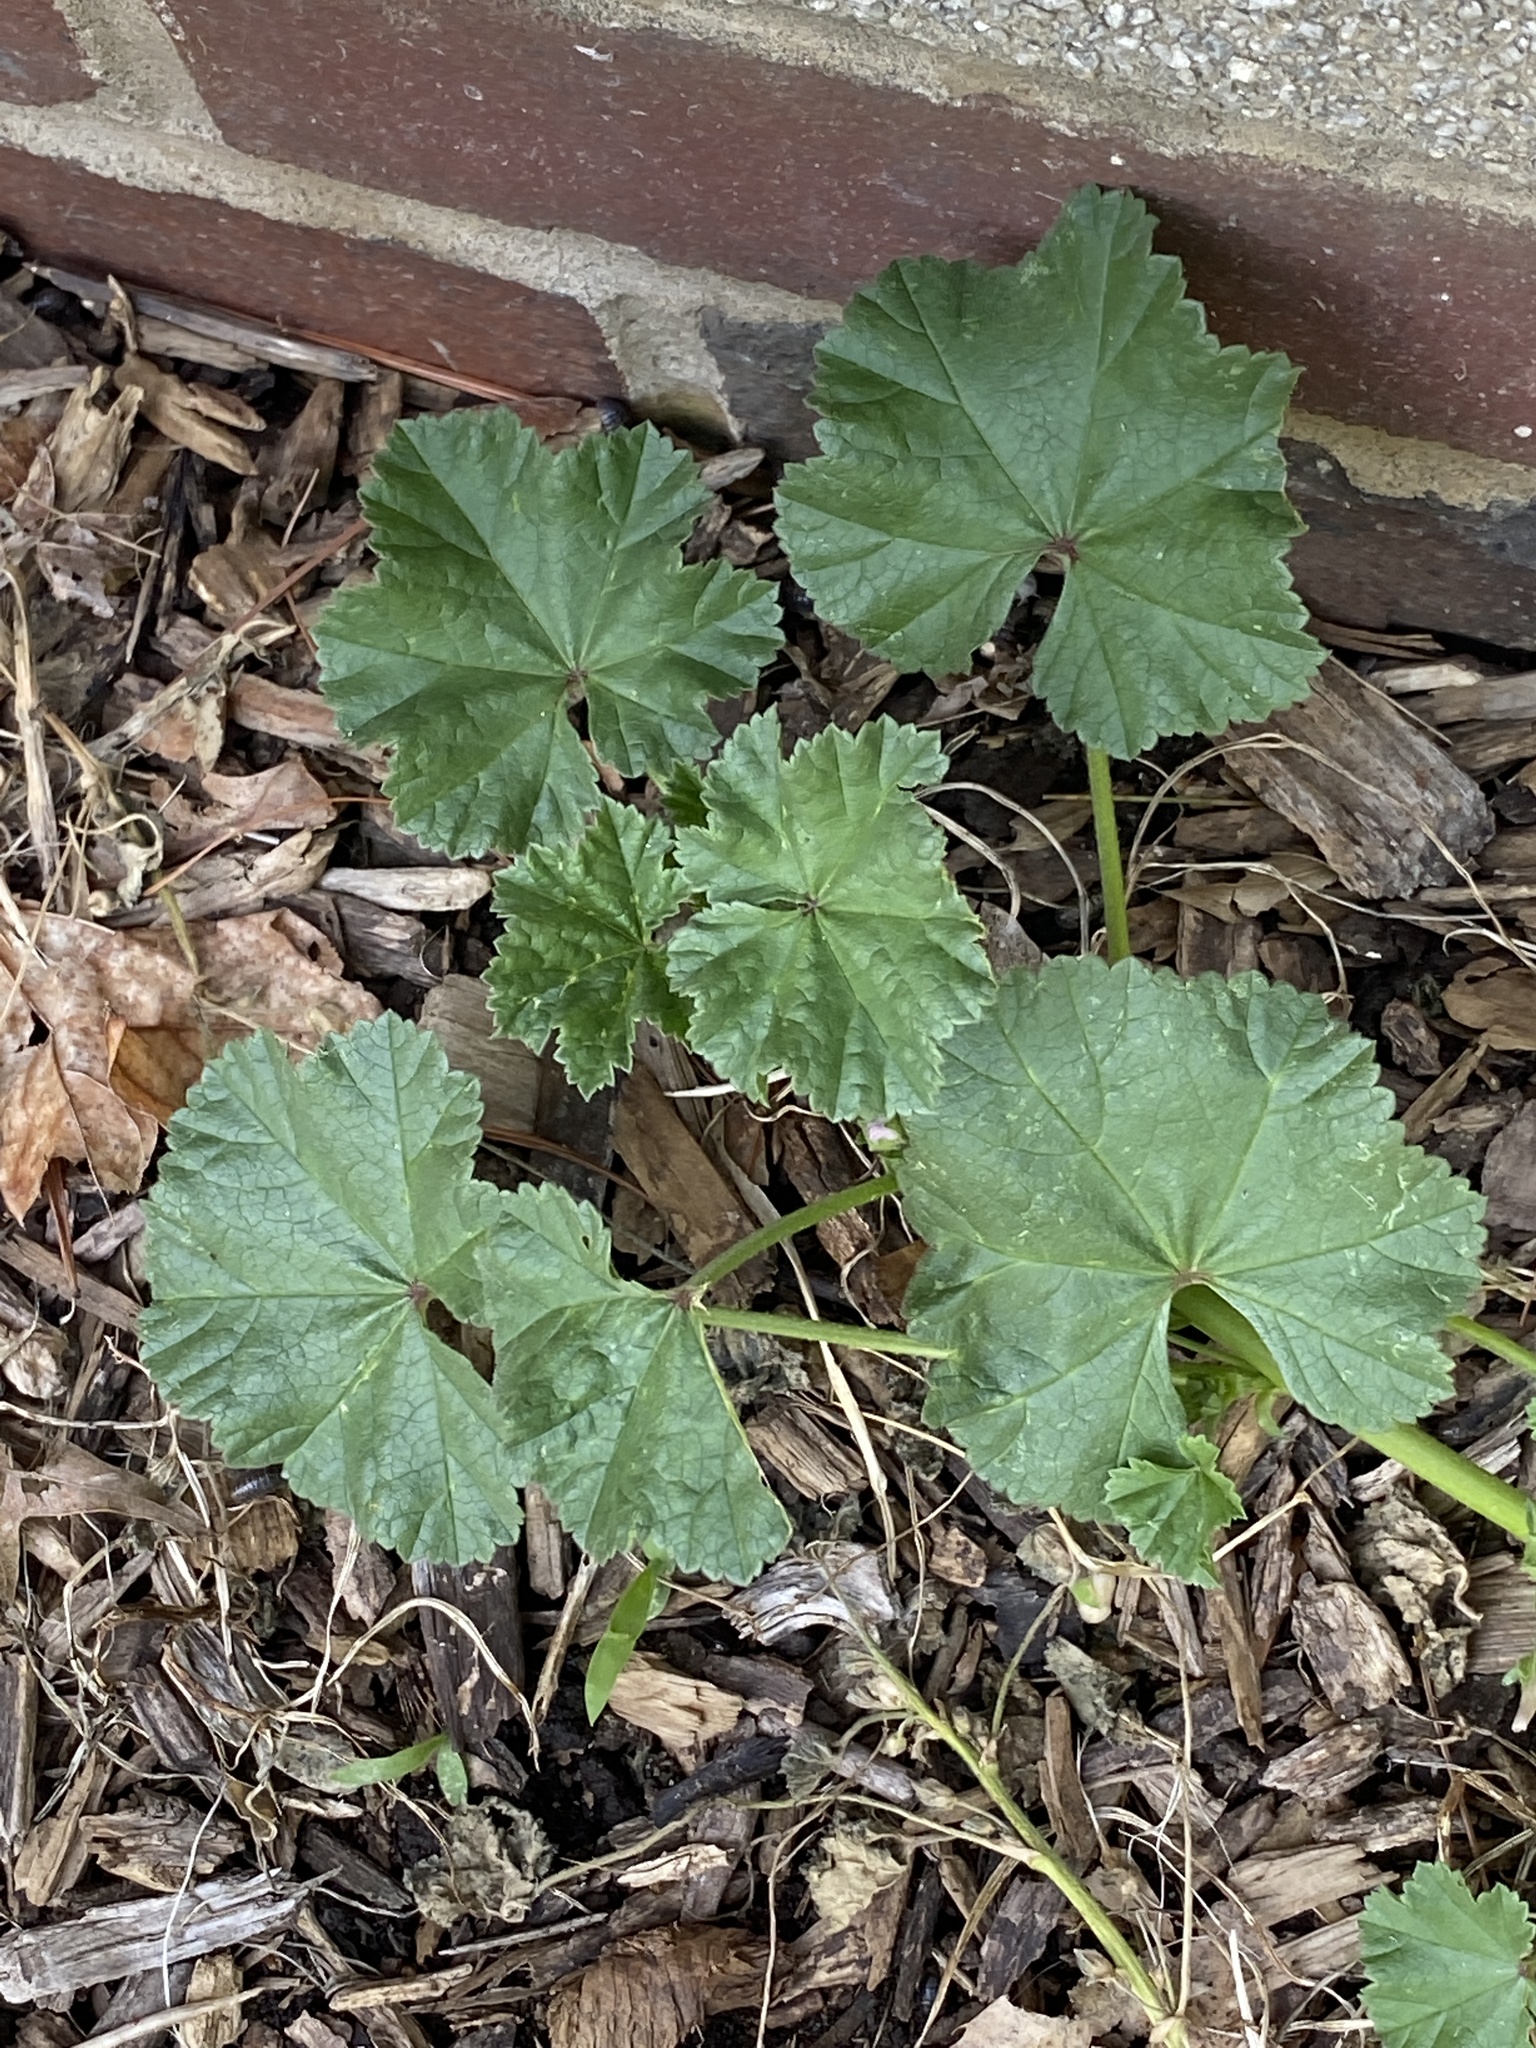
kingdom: Plantae
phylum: Tracheophyta
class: Magnoliopsida
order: Malvales
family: Malvaceae
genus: Malva
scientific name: Malva neglecta
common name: Common mallow
